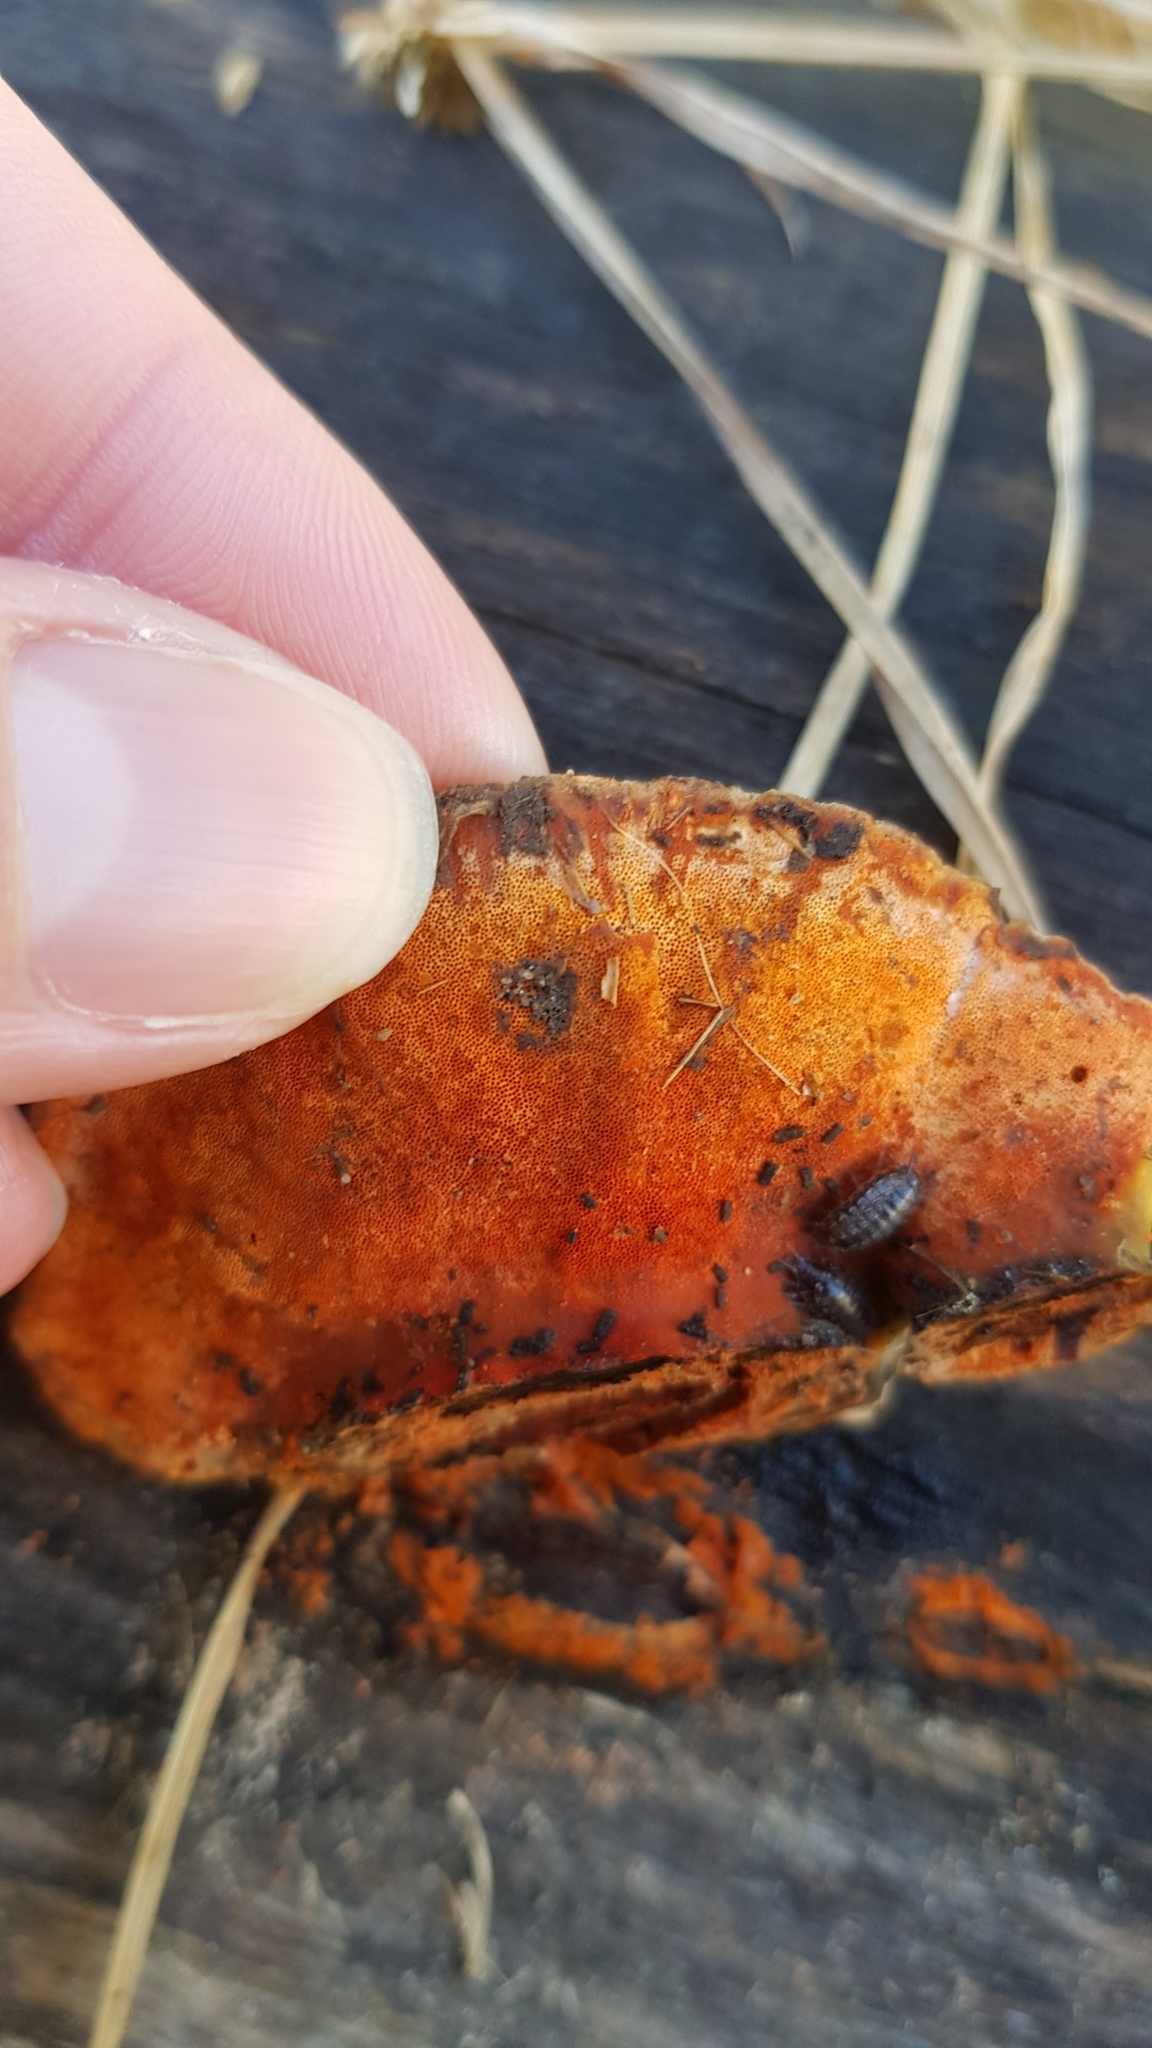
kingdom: Fungi
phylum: Basidiomycota
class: Agaricomycetes
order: Polyporales
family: Polyporaceae
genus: Trametes
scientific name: Trametes coccinea
